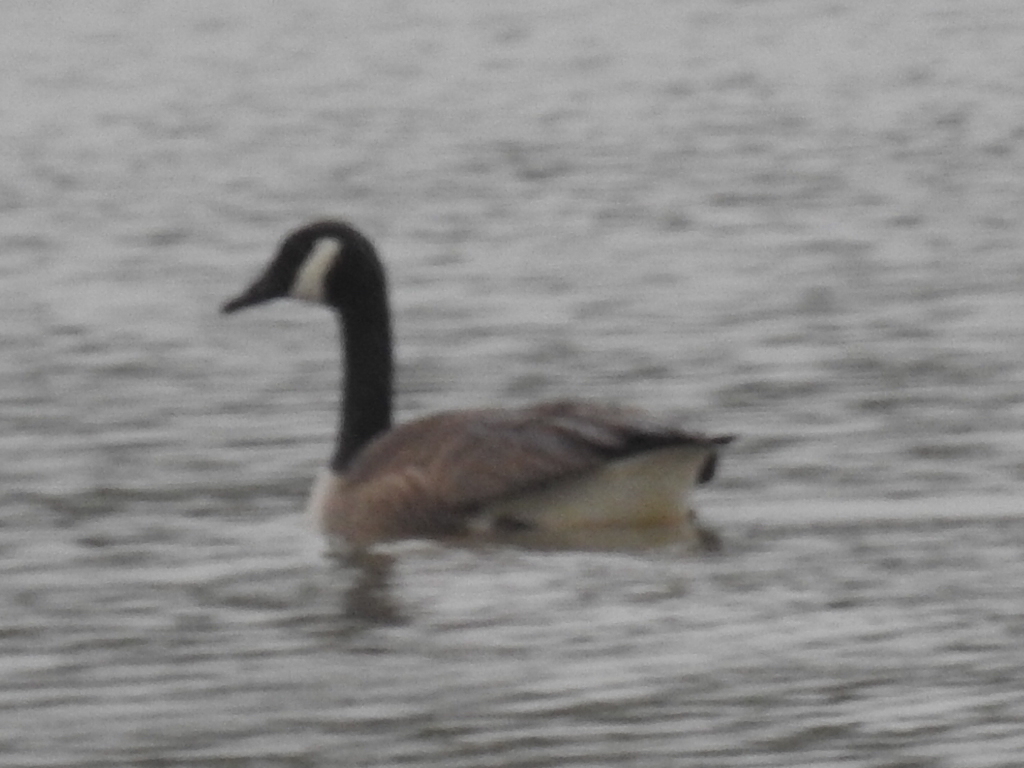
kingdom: Animalia
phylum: Chordata
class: Aves
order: Anseriformes
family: Anatidae
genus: Branta
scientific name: Branta canadensis
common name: Canada goose
